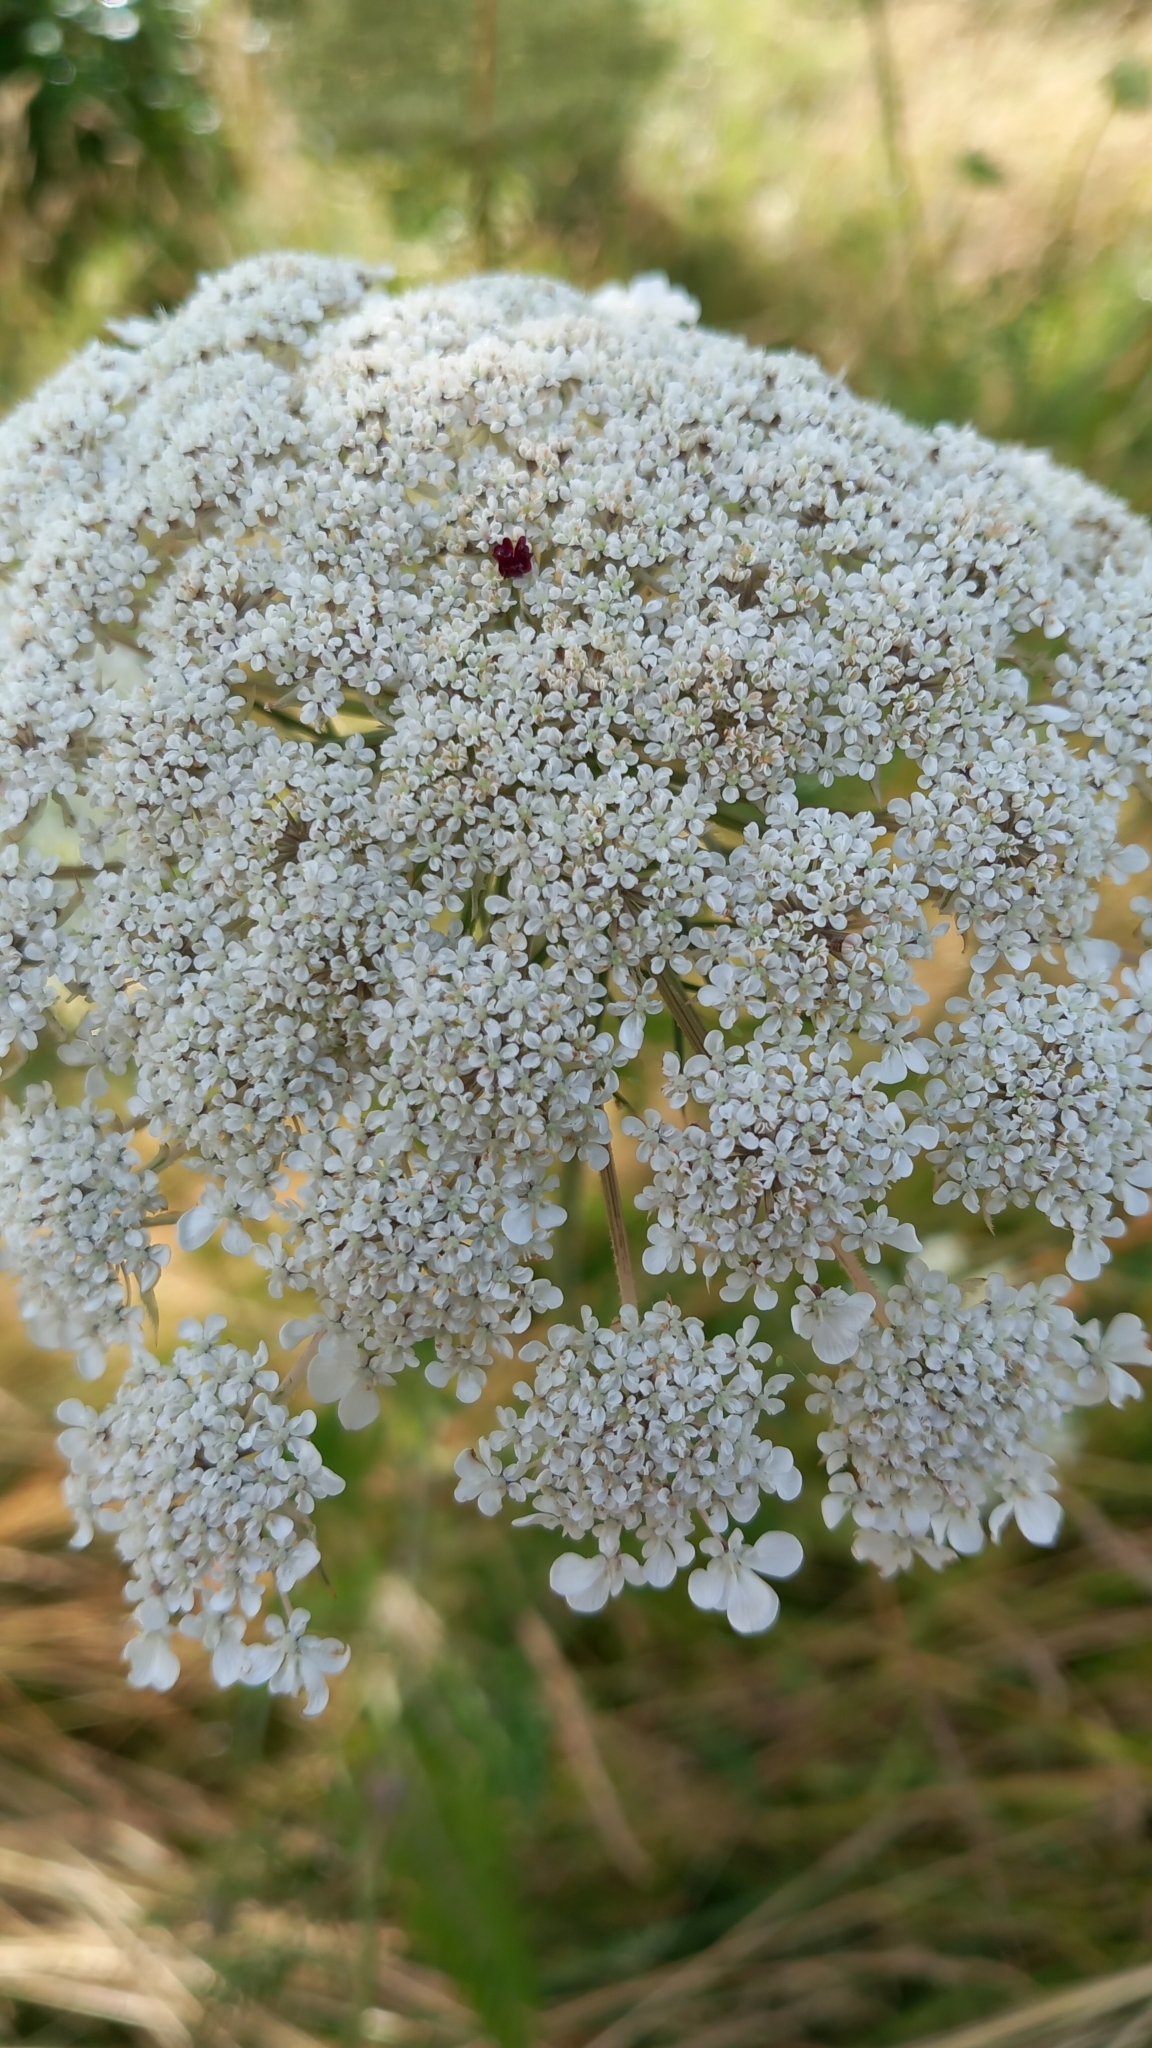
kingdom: Plantae
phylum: Tracheophyta
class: Magnoliopsida
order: Apiales
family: Apiaceae
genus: Daucus
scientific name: Daucus carota
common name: Wild carrot
